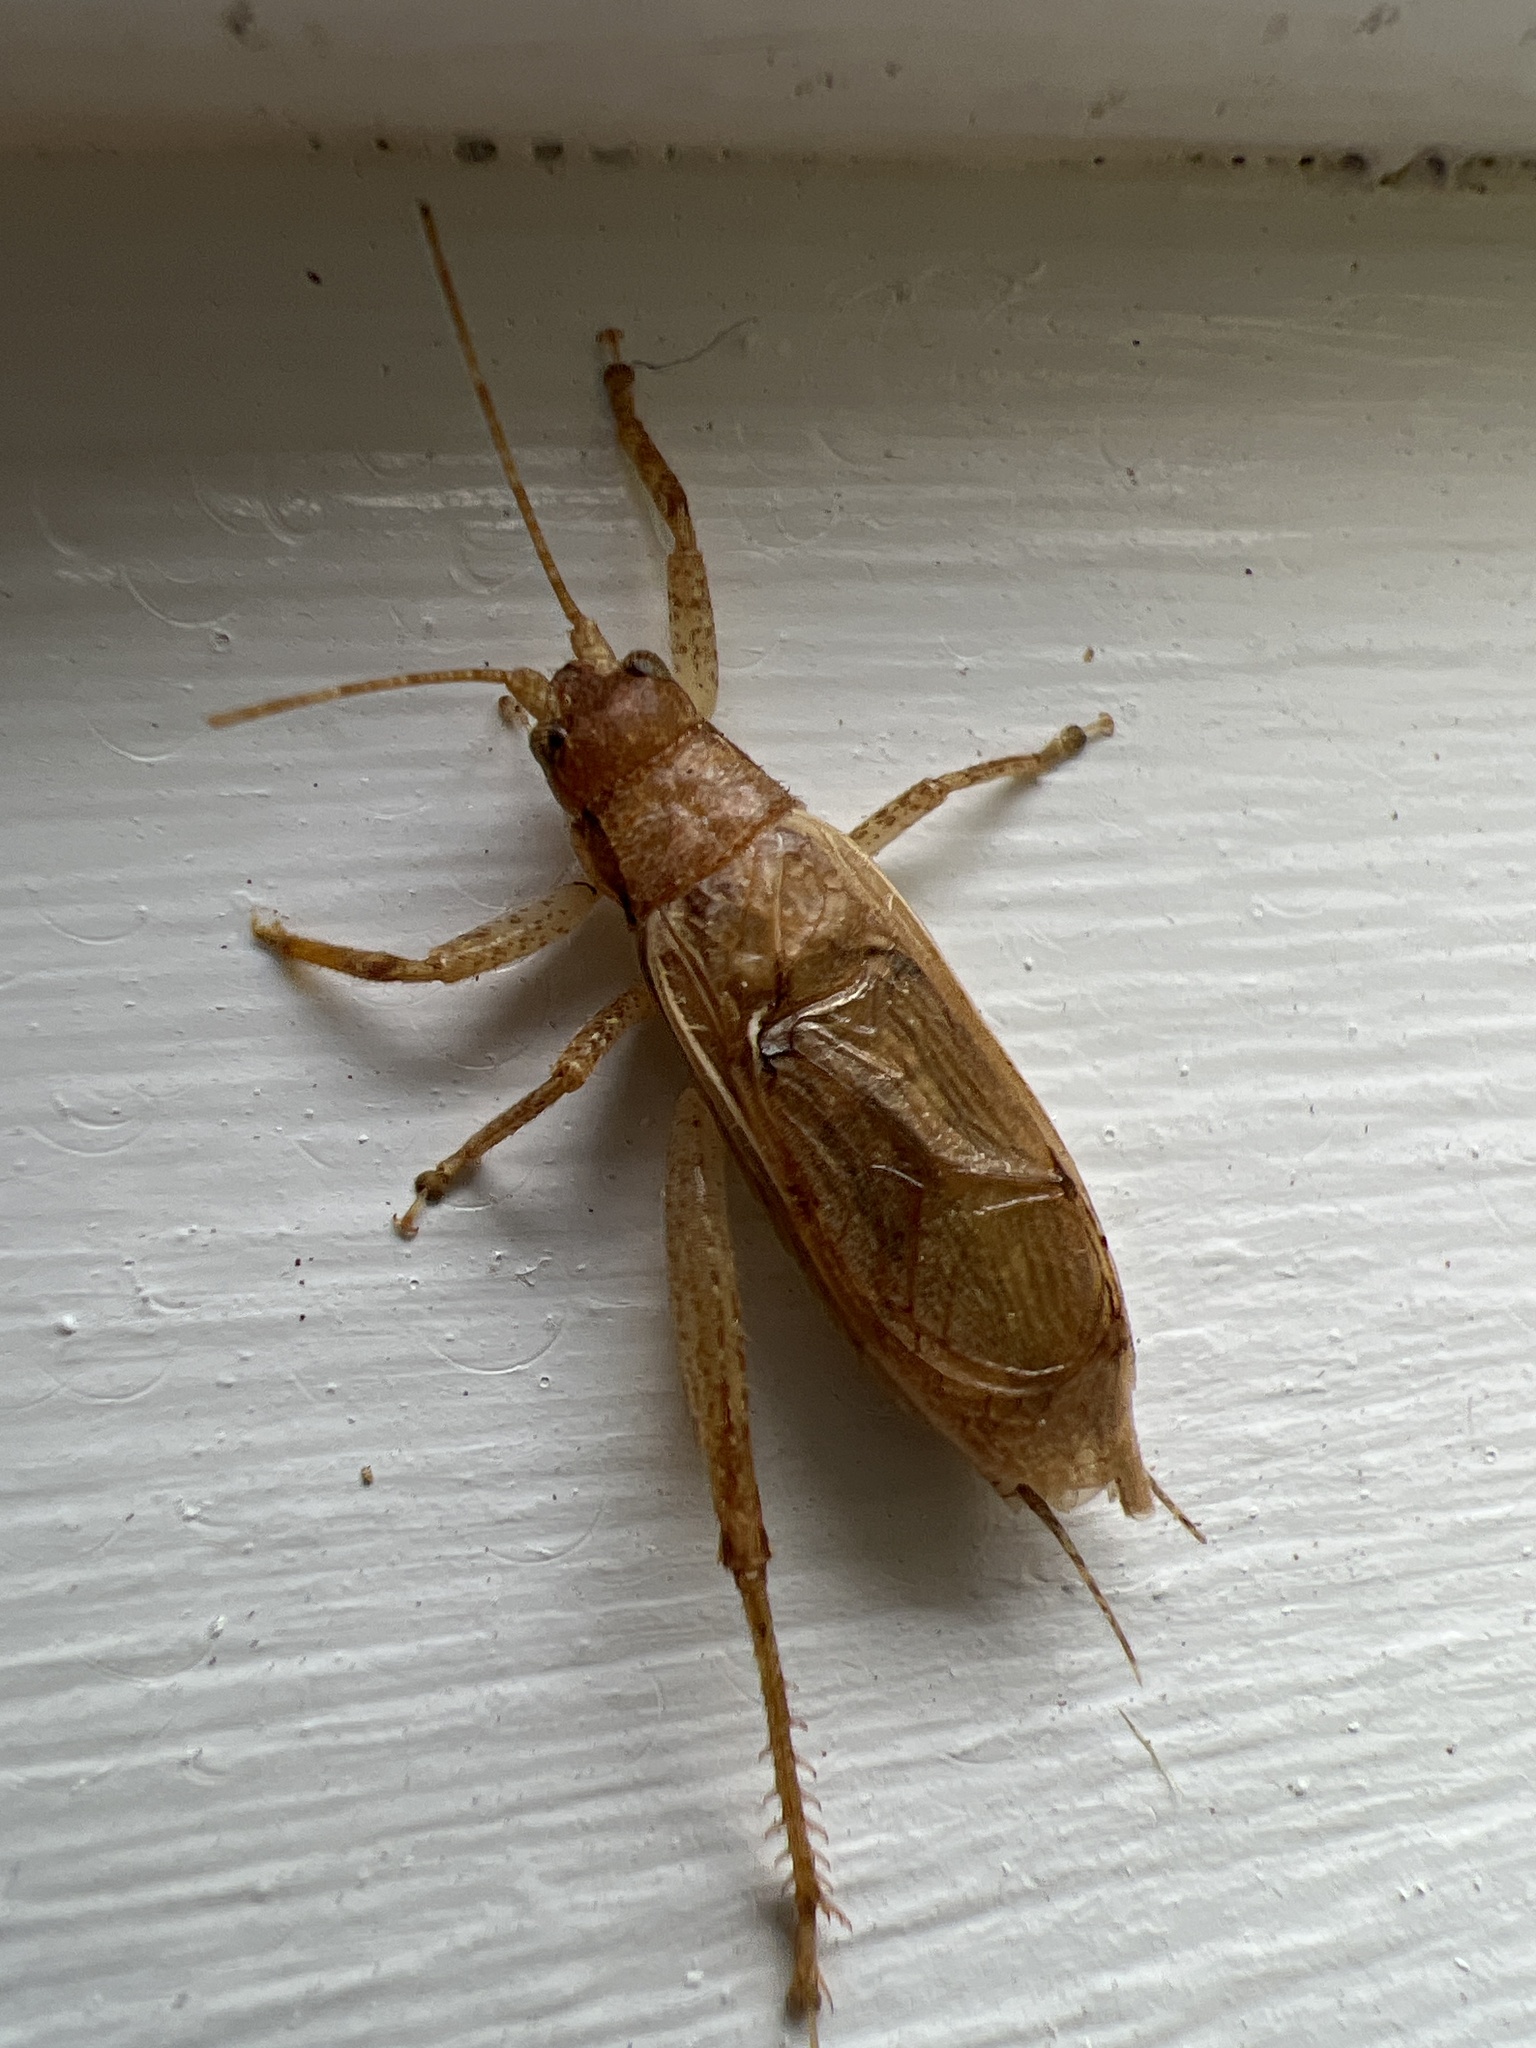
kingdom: Animalia
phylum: Arthropoda
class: Insecta
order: Orthoptera
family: Gryllidae
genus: Hapithus
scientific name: Hapithus saltator
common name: Jumping bush cricket
